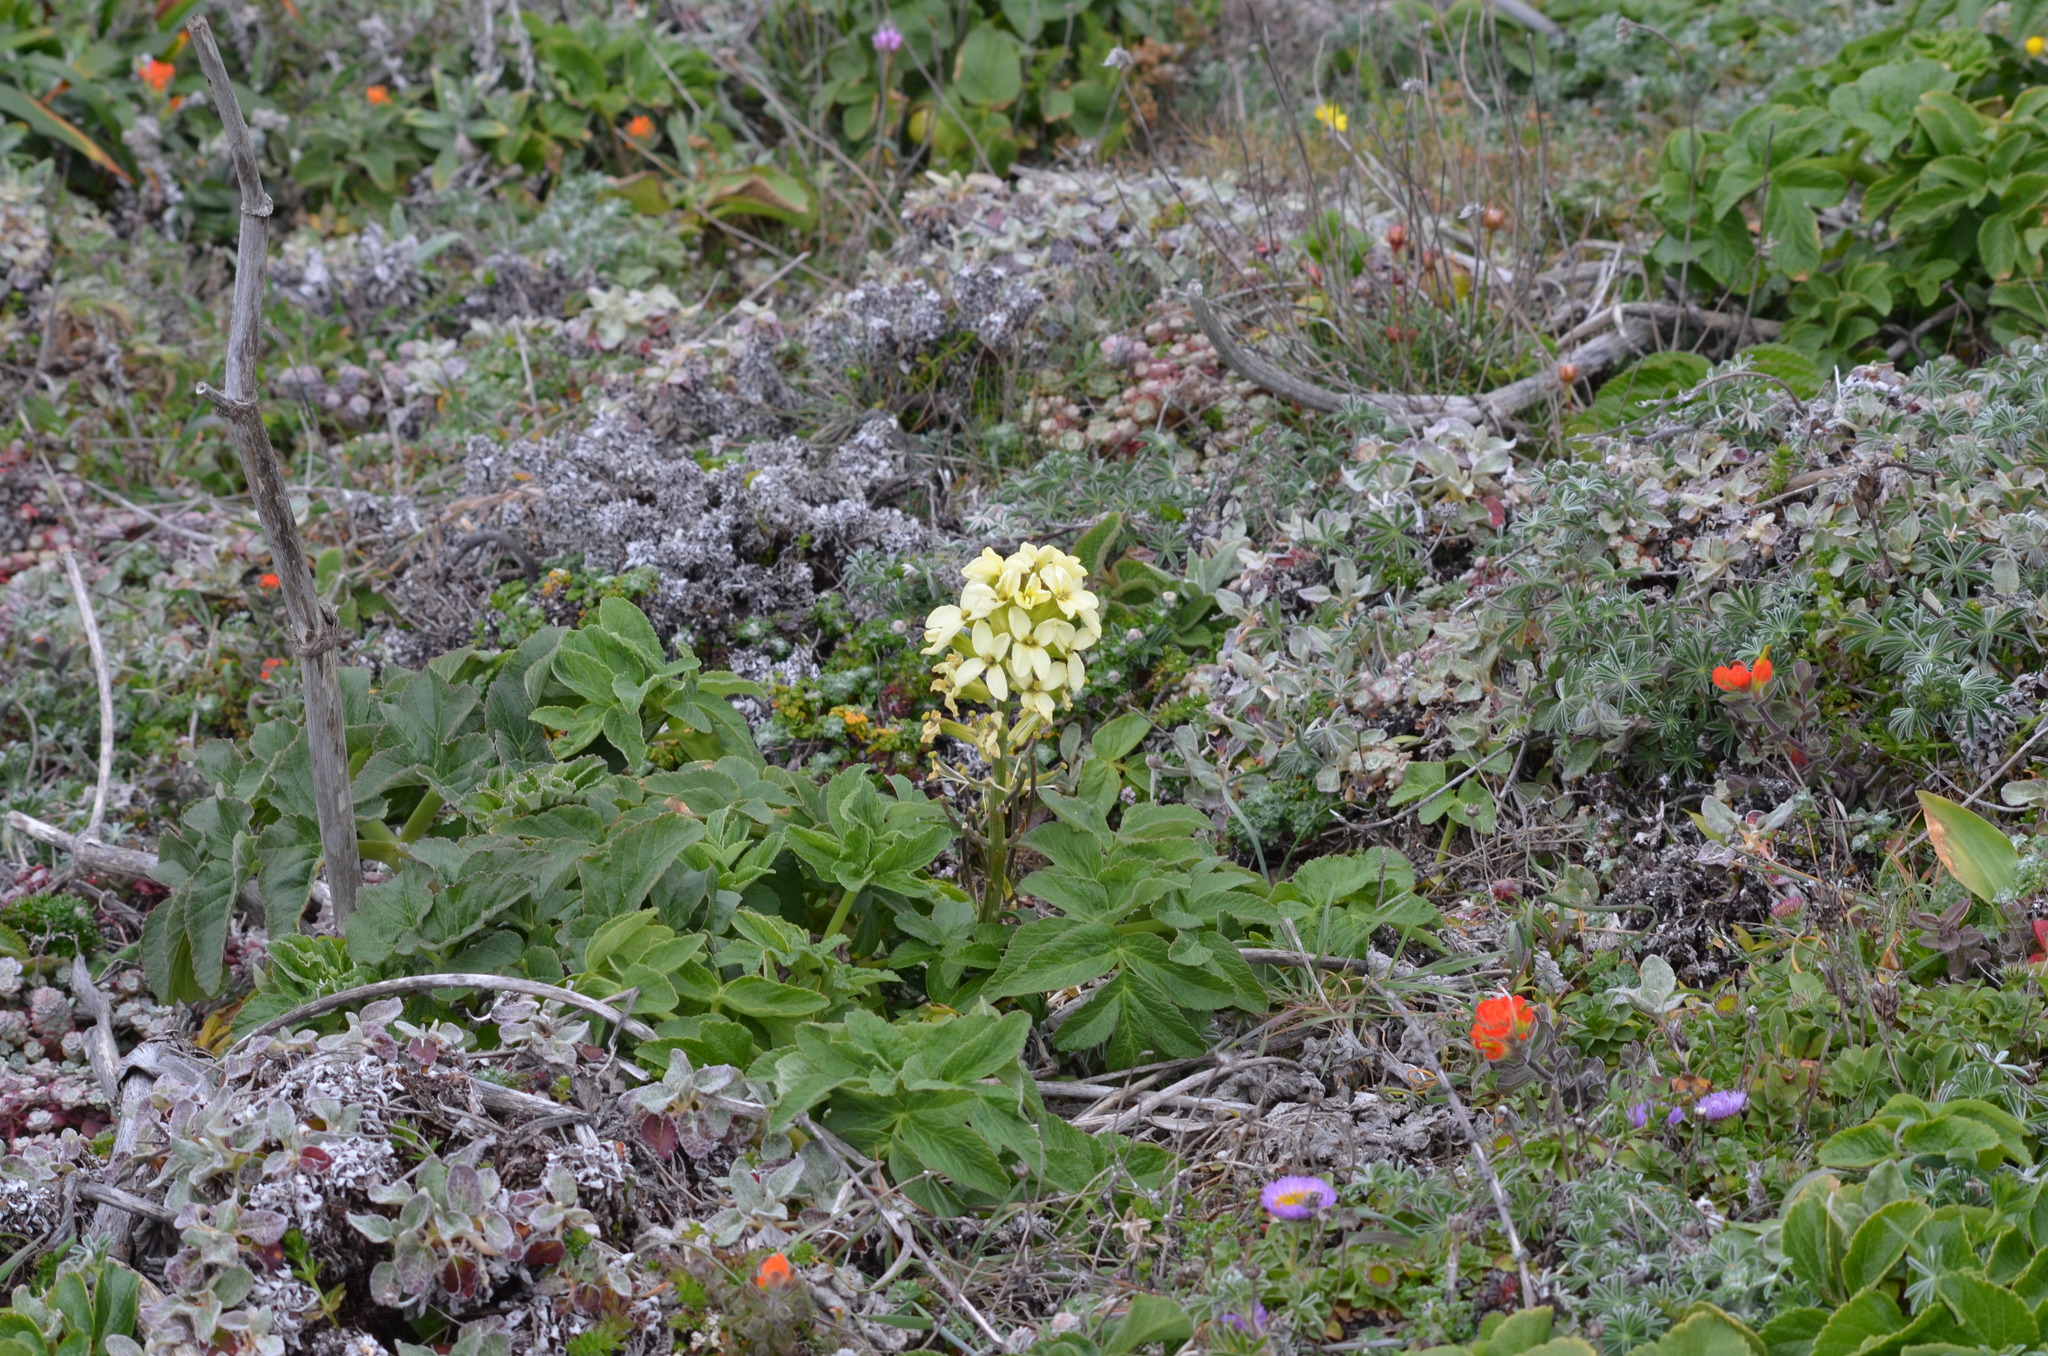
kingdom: Plantae
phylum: Tracheophyta
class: Magnoliopsida
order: Brassicales
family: Brassicaceae
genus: Erysimum
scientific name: Erysimum concinnum
